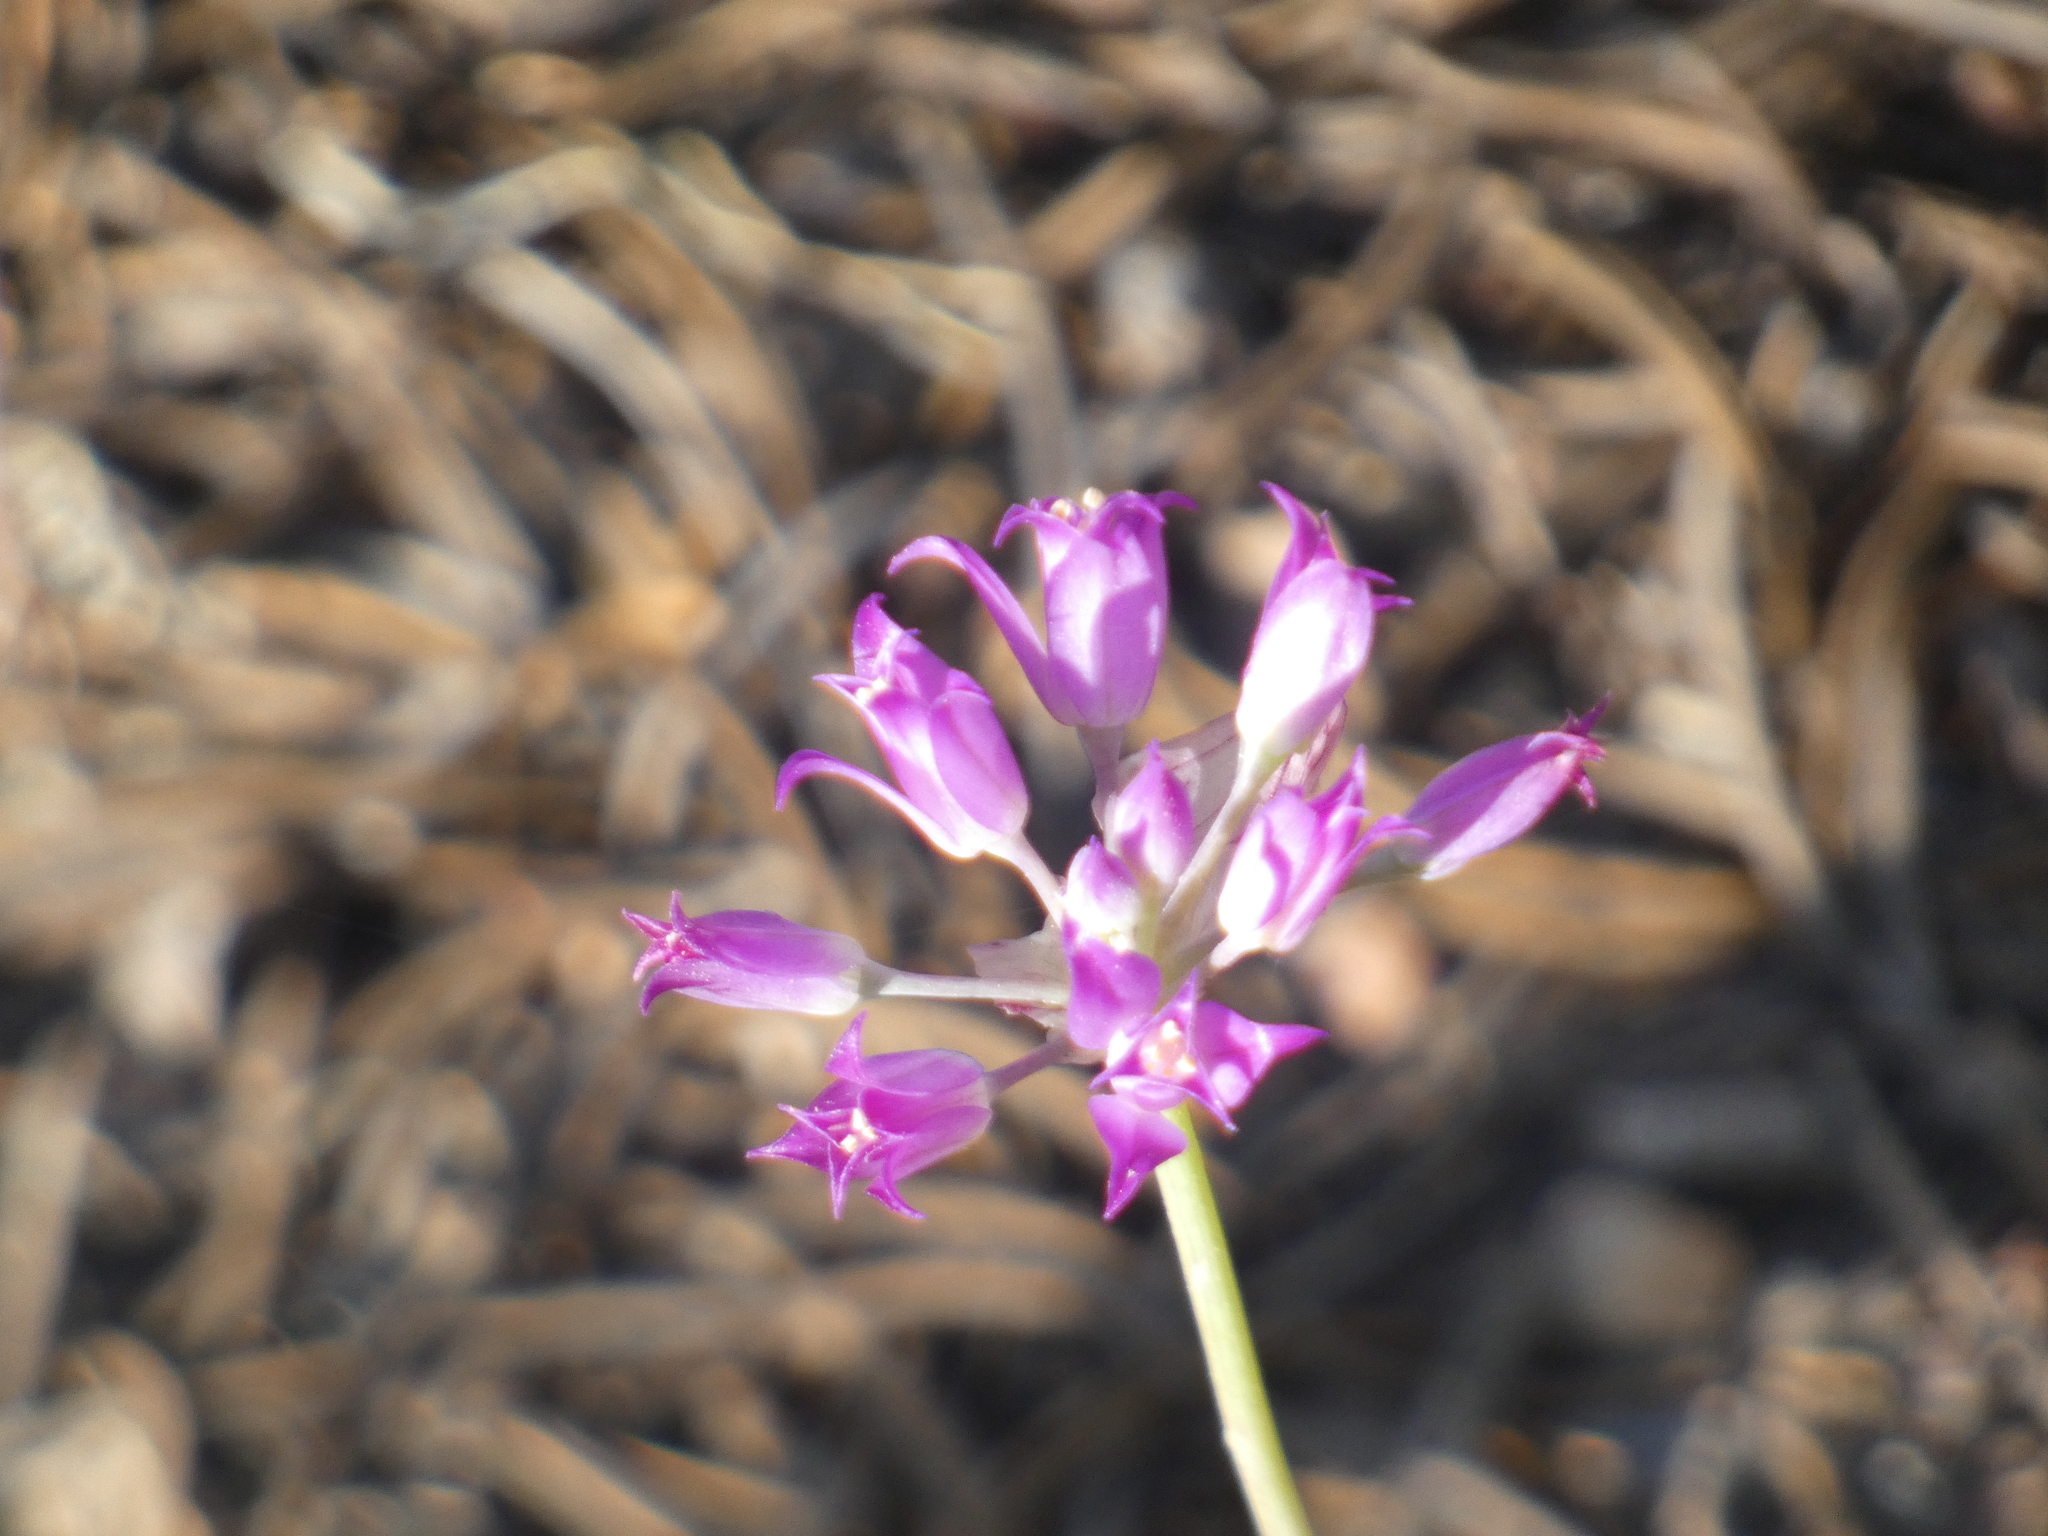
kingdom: Plantae
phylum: Tracheophyta
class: Liliopsida
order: Asparagales
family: Amaryllidaceae
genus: Allium
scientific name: Allium acuminatum
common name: Hooker's onion
